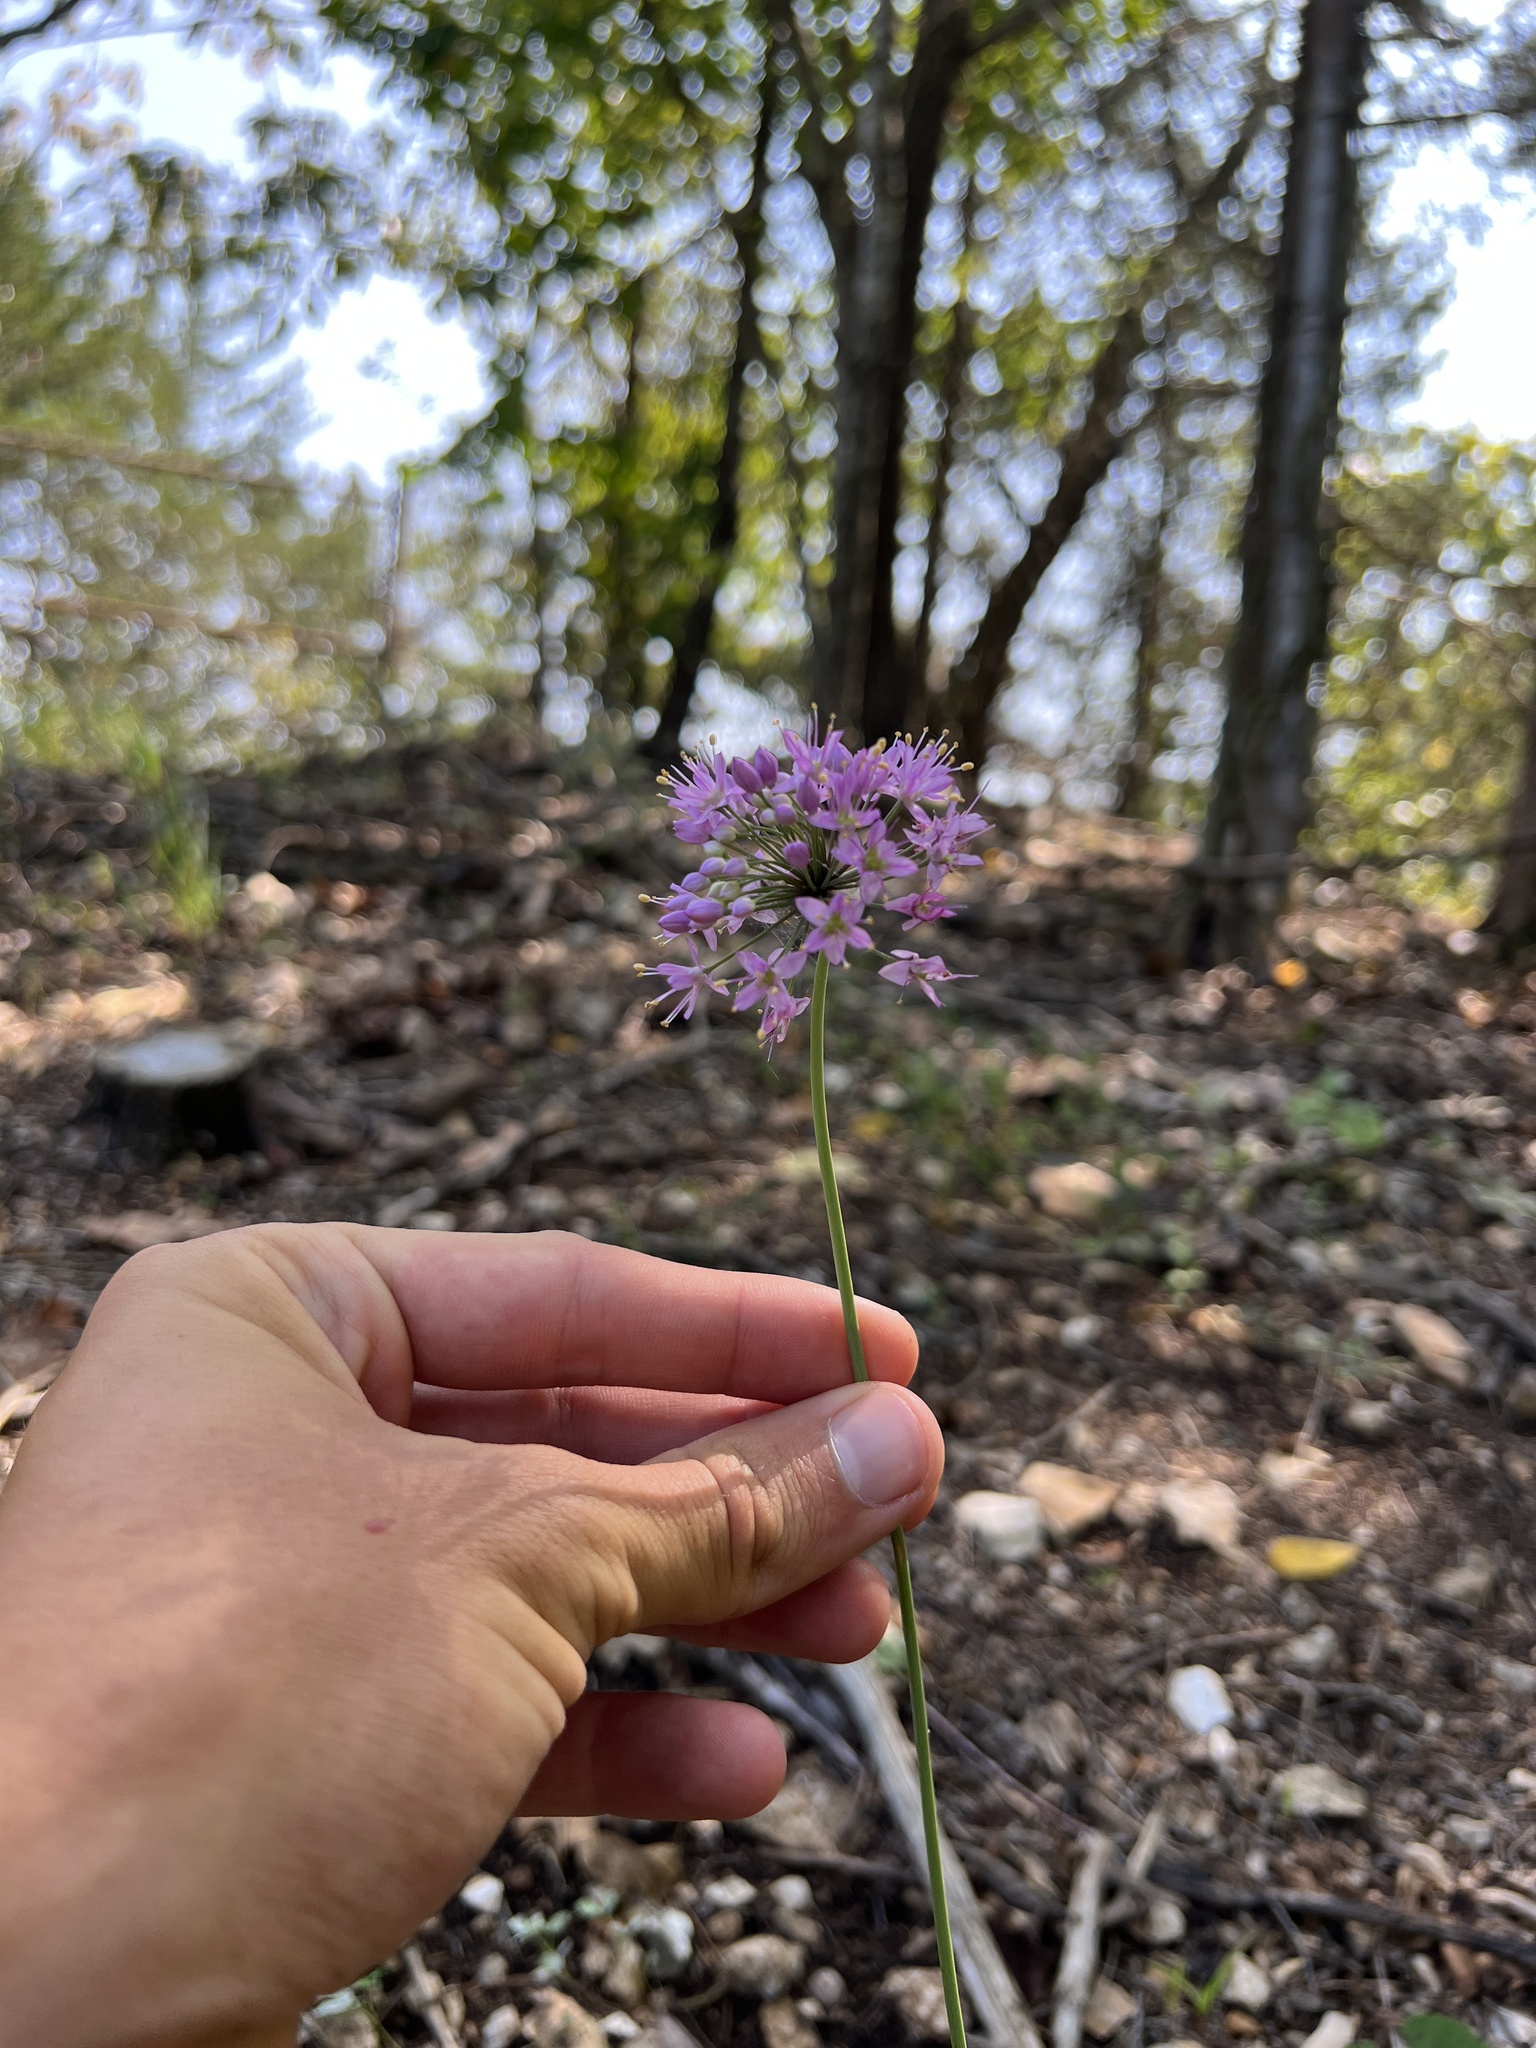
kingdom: Plantae
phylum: Tracheophyta
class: Liliopsida
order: Asparagales
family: Amaryllidaceae
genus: Allium
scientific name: Allium stellatum
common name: Autumn onion
